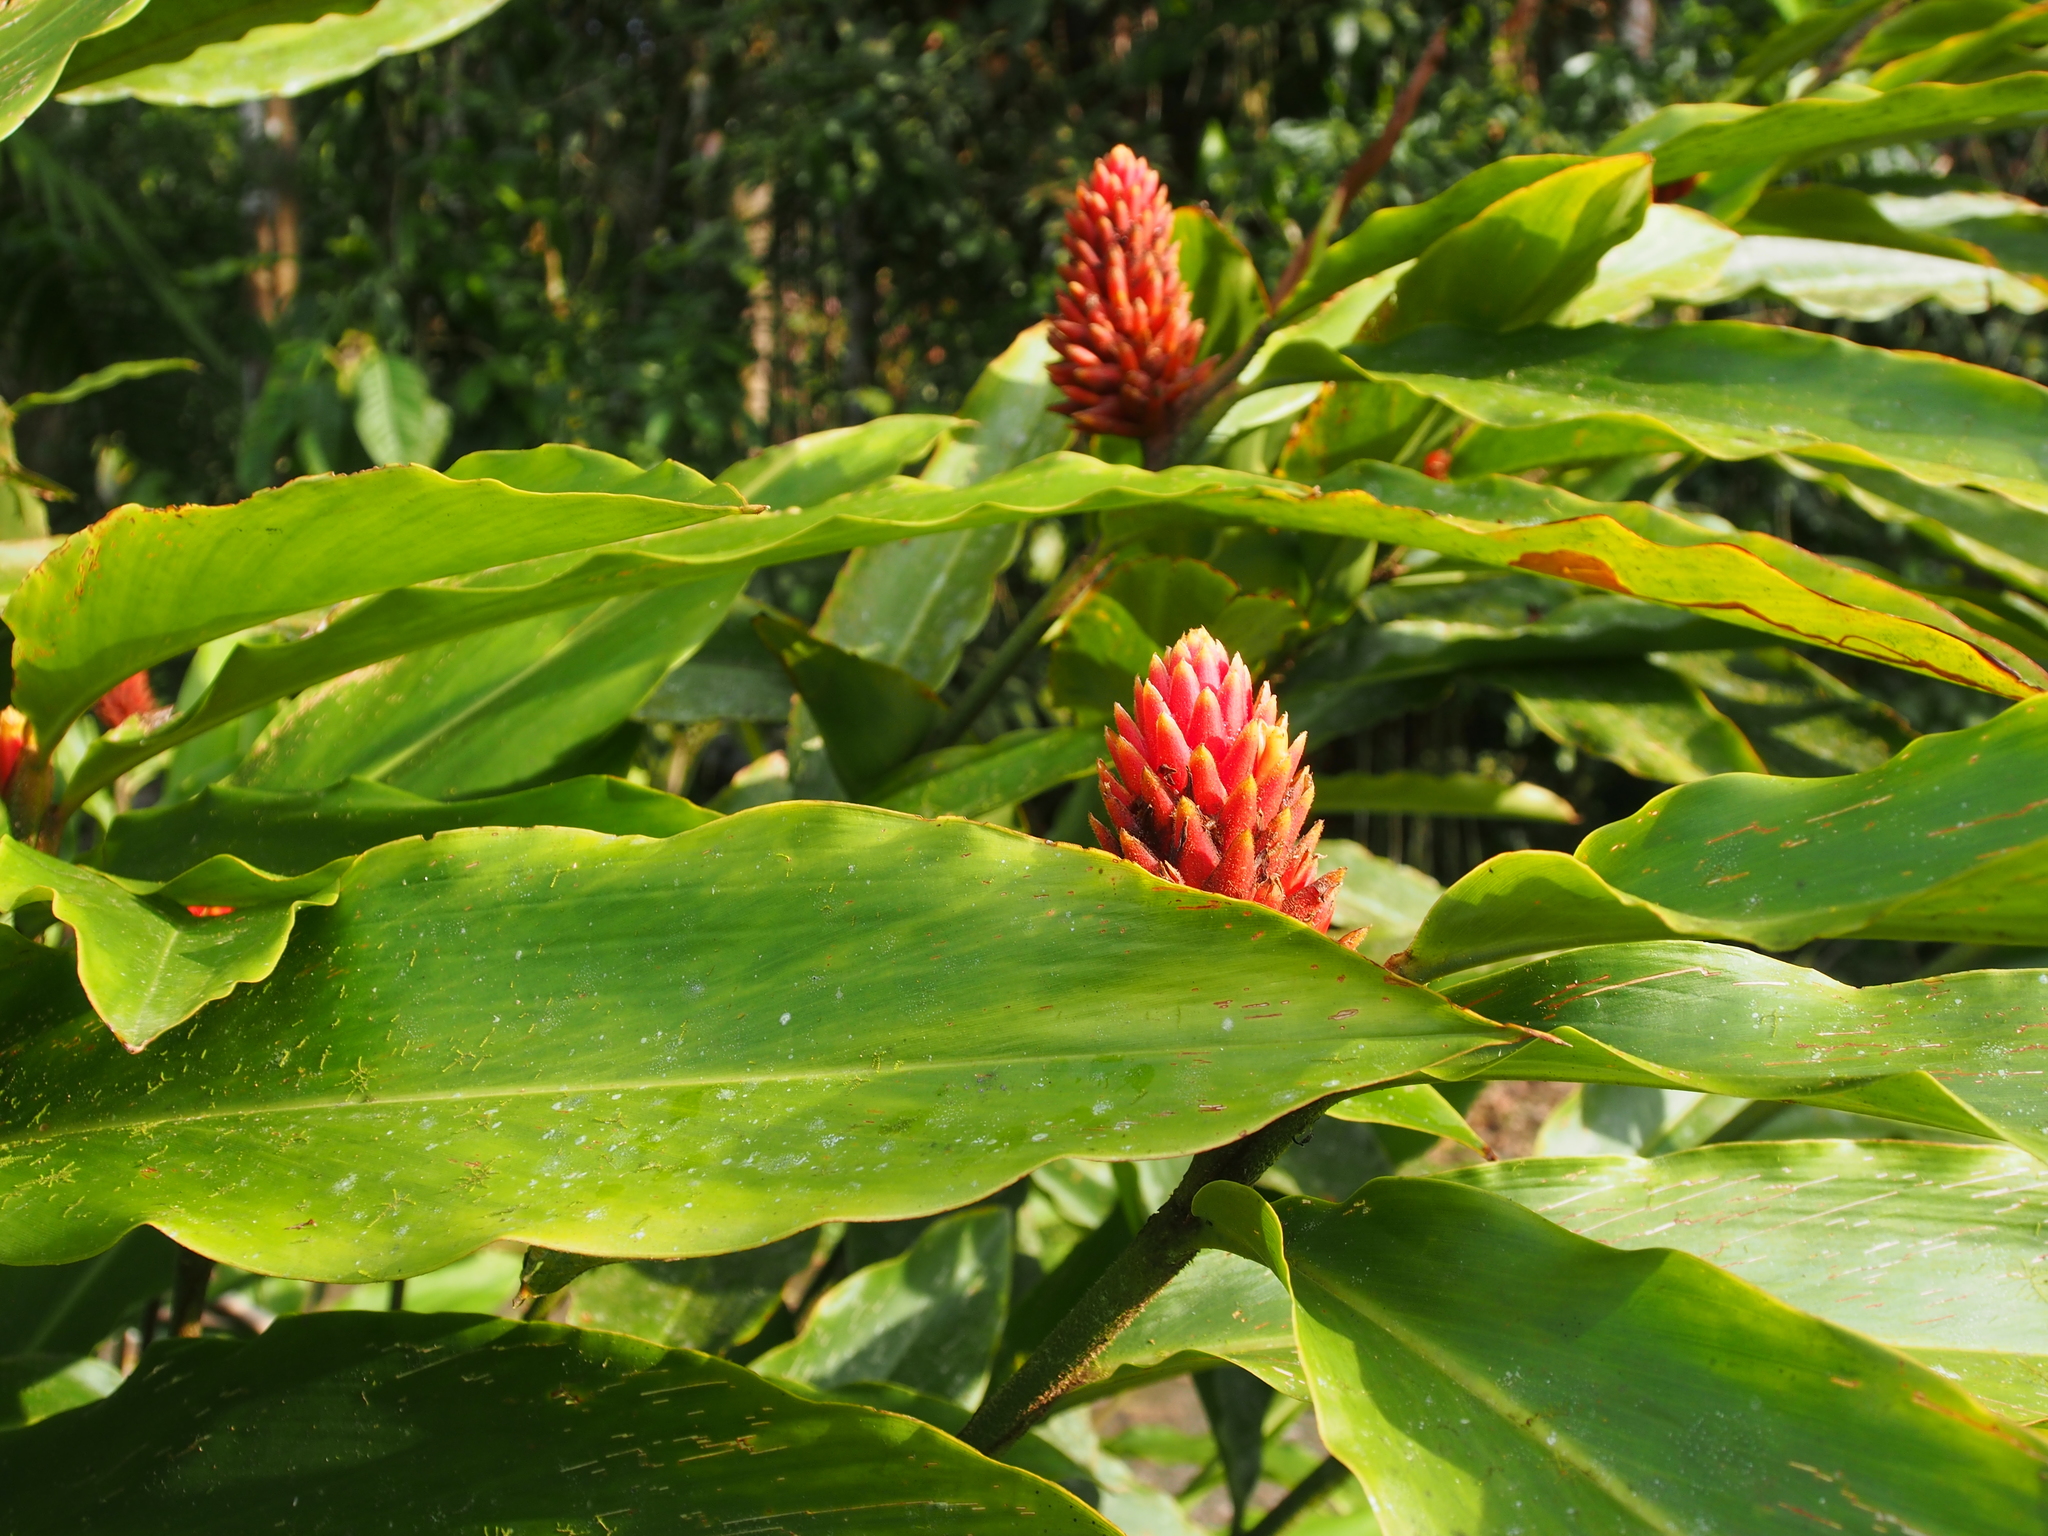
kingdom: Plantae
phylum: Tracheophyta
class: Liliopsida
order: Zingiberales
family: Zingiberaceae
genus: Renealmia
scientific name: Renealmia cernua
